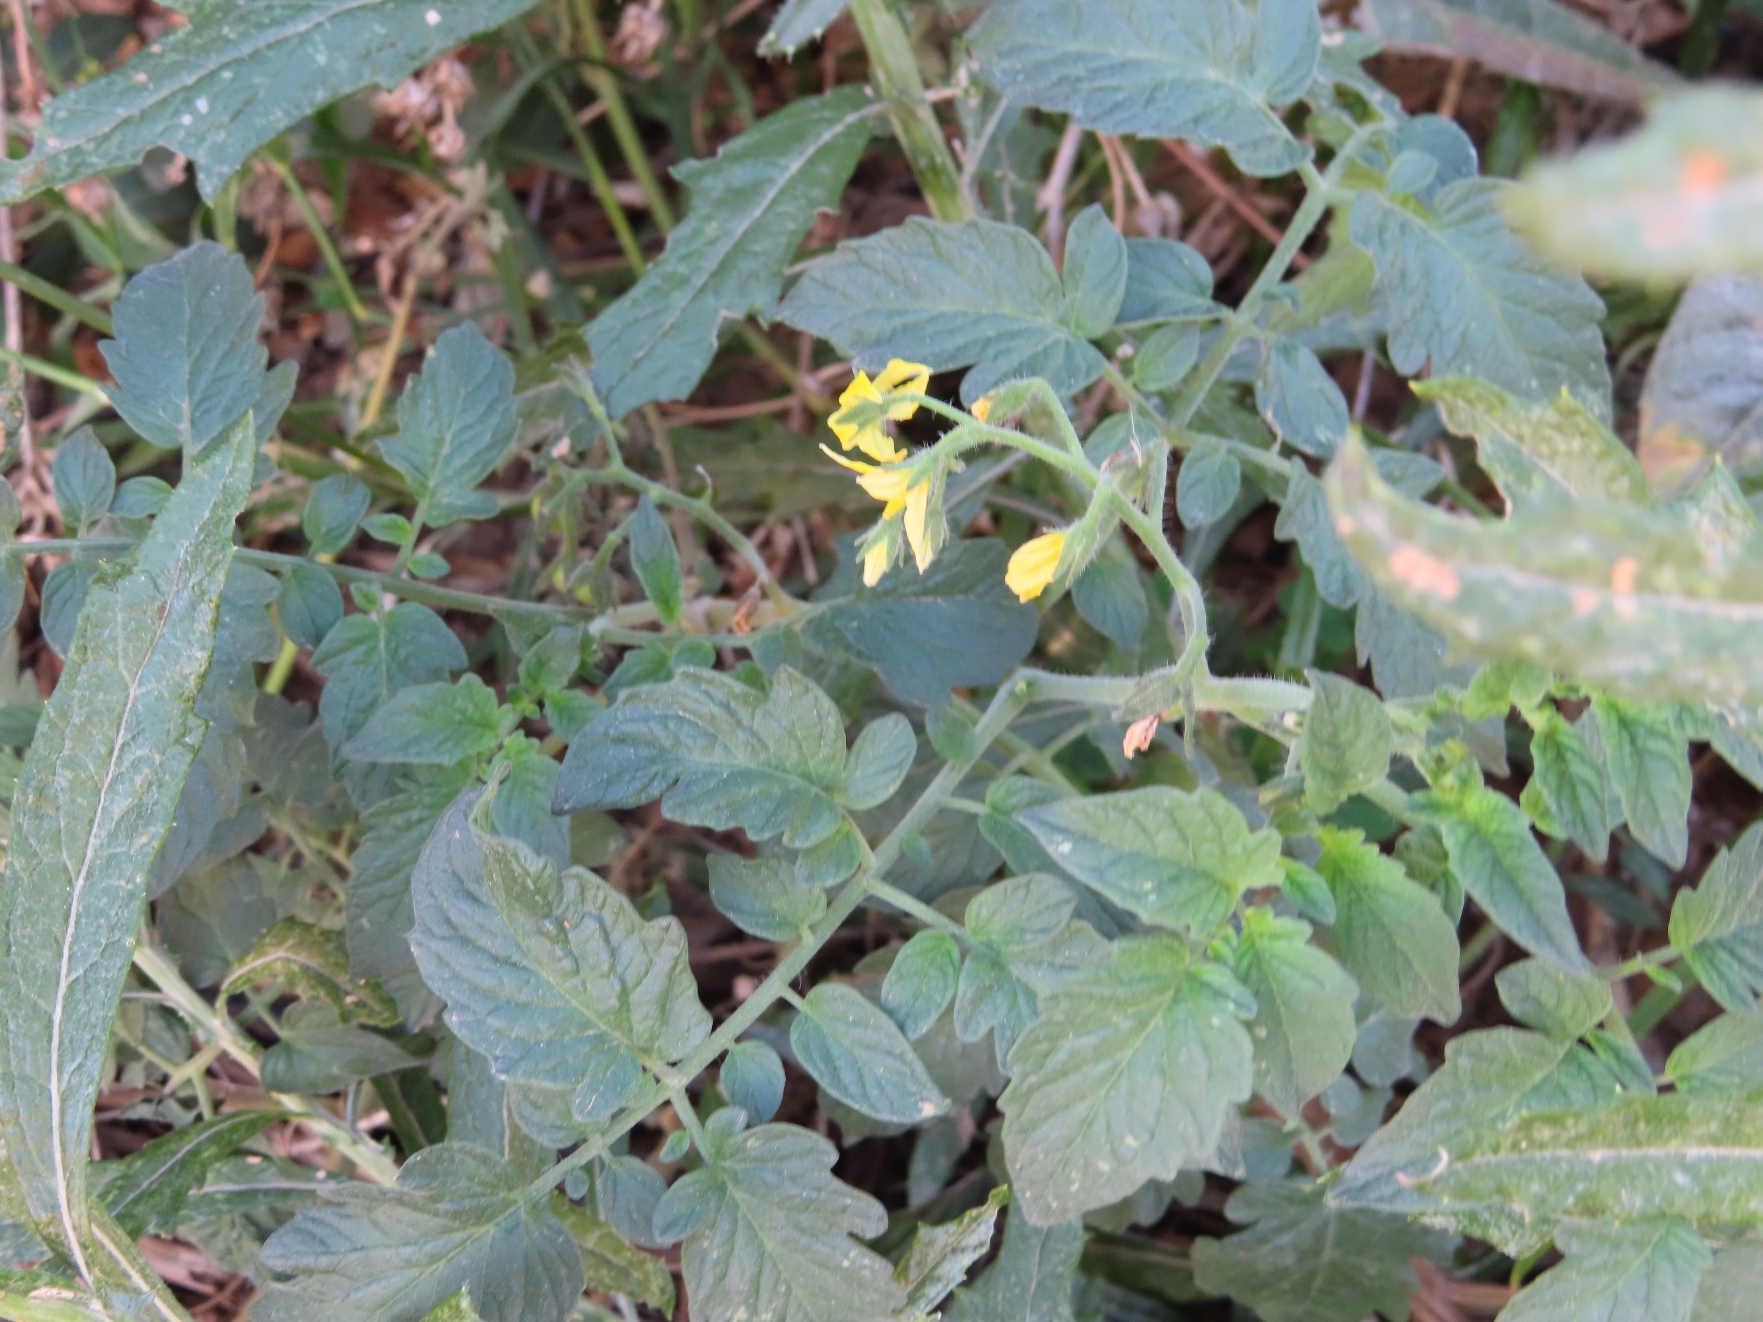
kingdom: Plantae
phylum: Tracheophyta
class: Magnoliopsida
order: Solanales
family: Solanaceae
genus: Solanum
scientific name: Solanum lycopersicum
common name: Garden tomato
